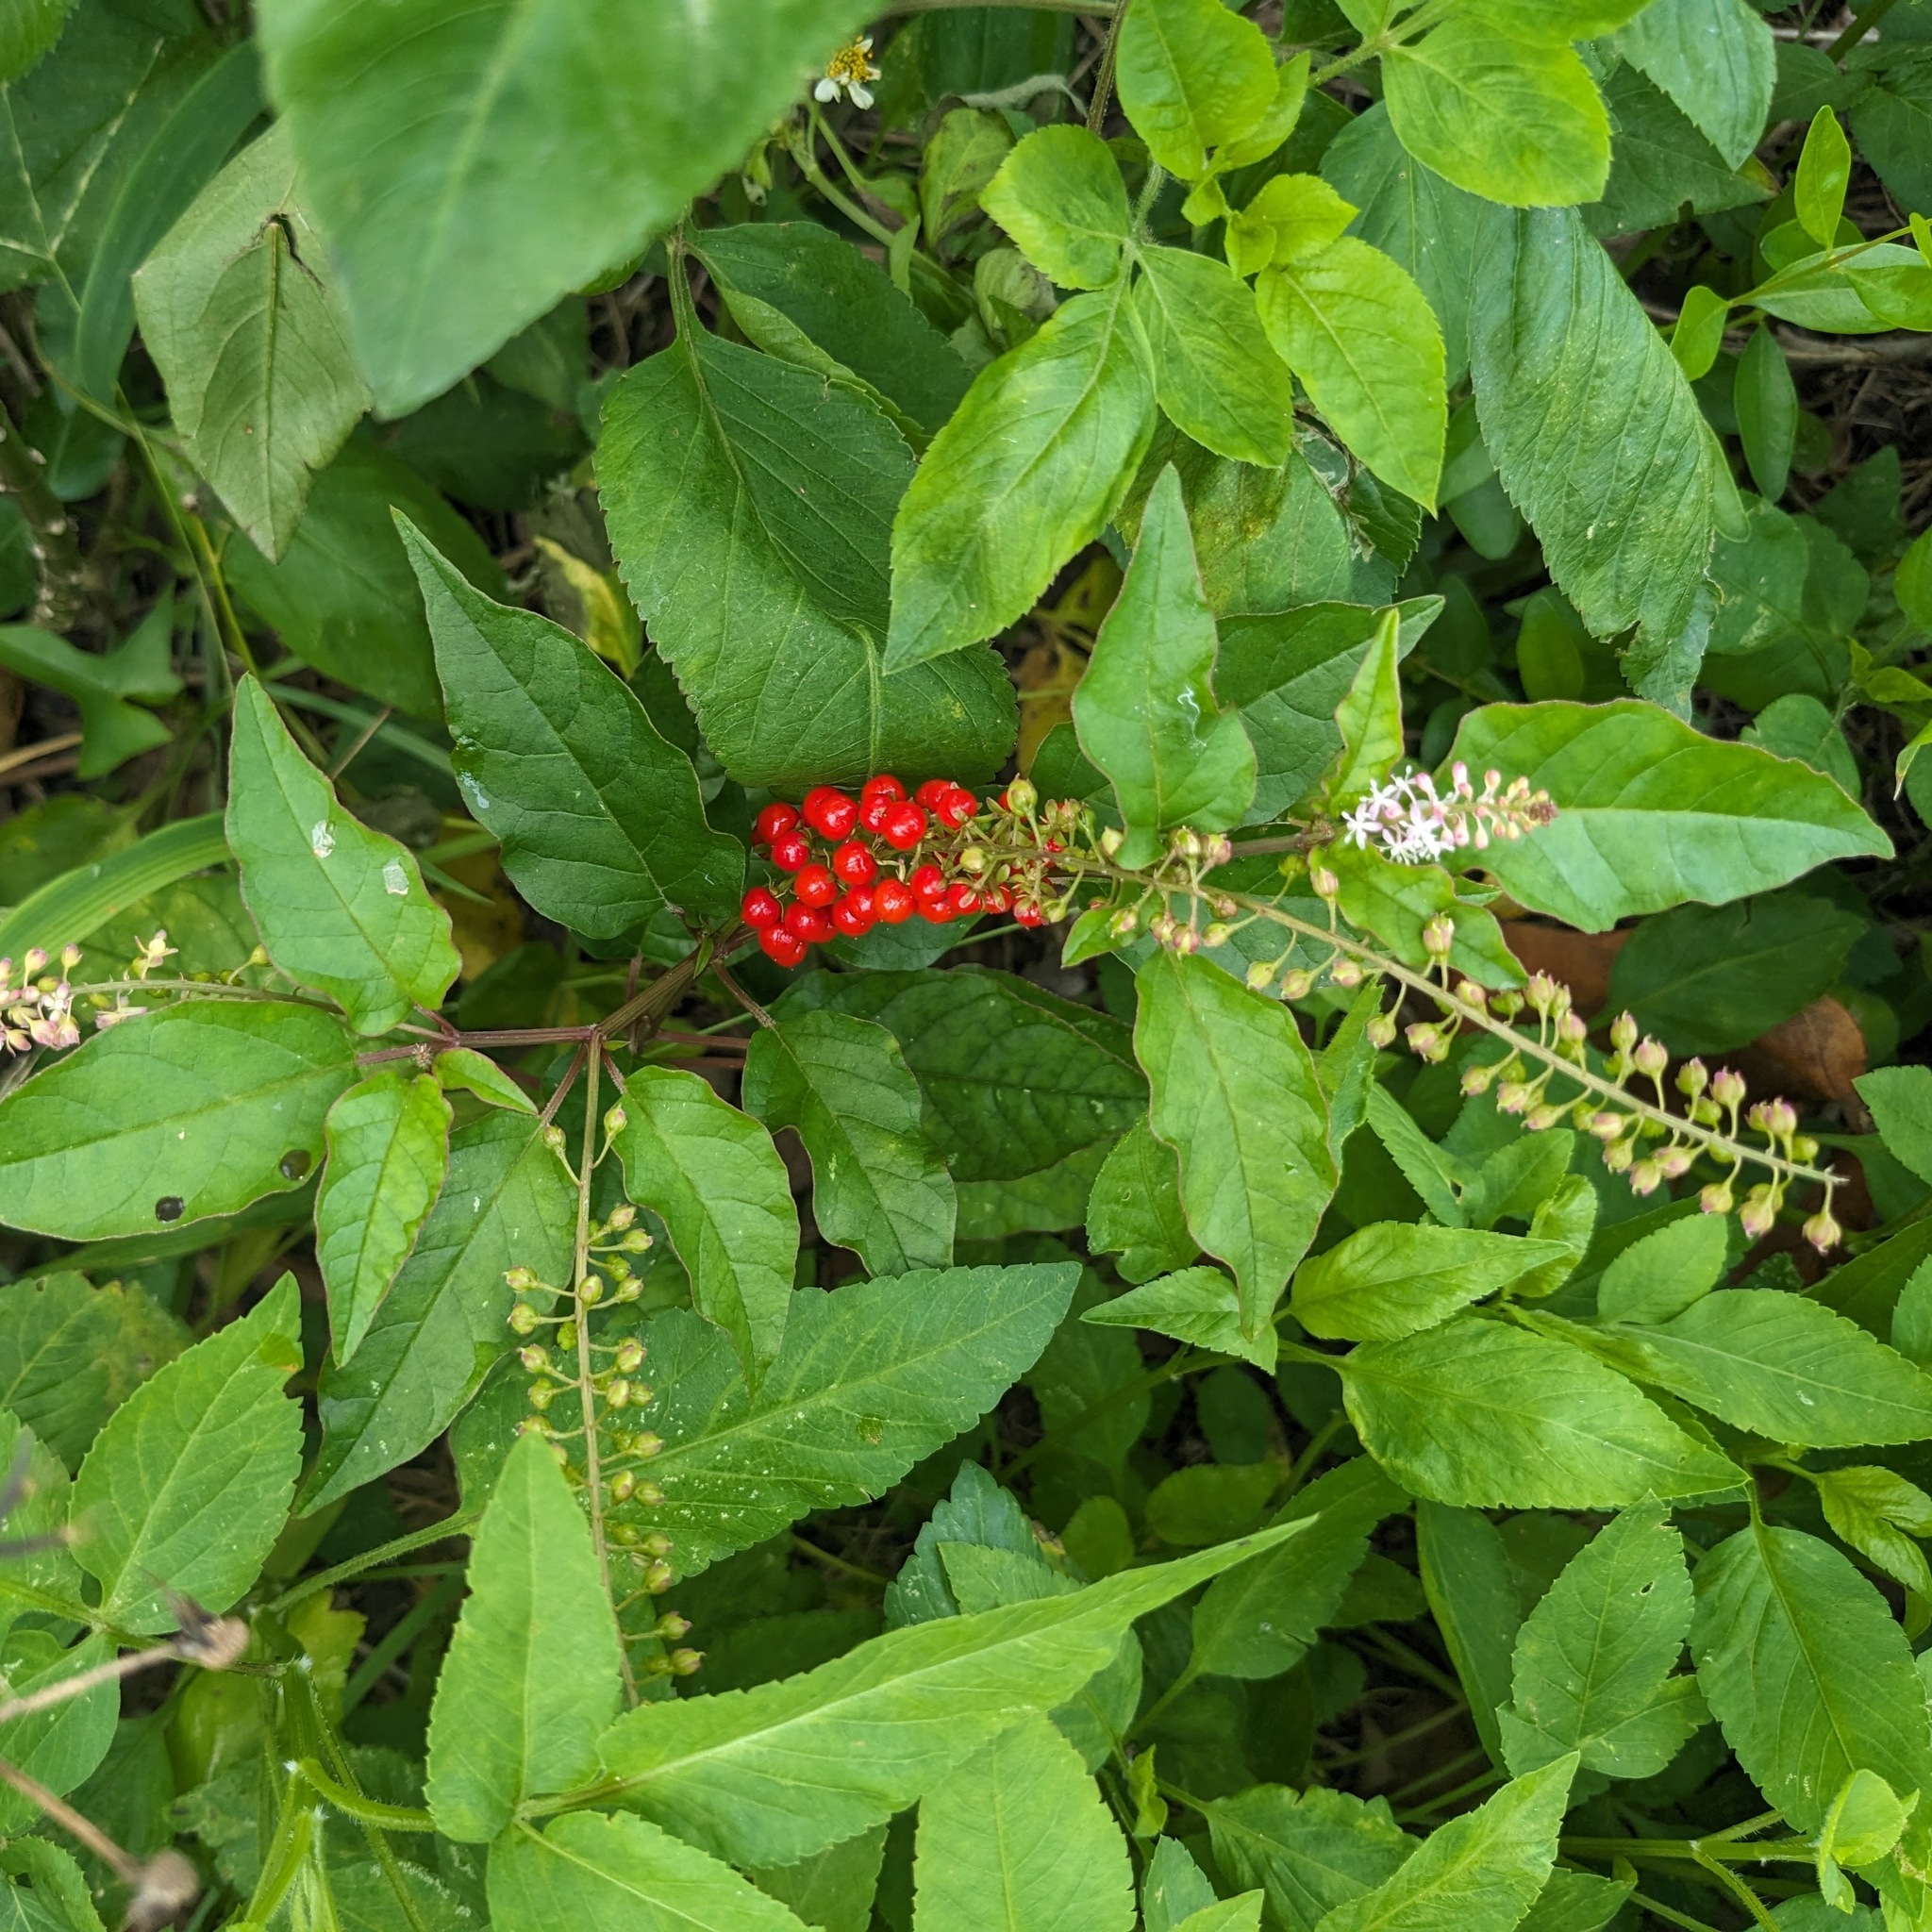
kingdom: Plantae
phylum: Tracheophyta
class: Magnoliopsida
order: Caryophyllales
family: Phytolaccaceae
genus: Rivina
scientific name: Rivina humilis
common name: Rougeplant
